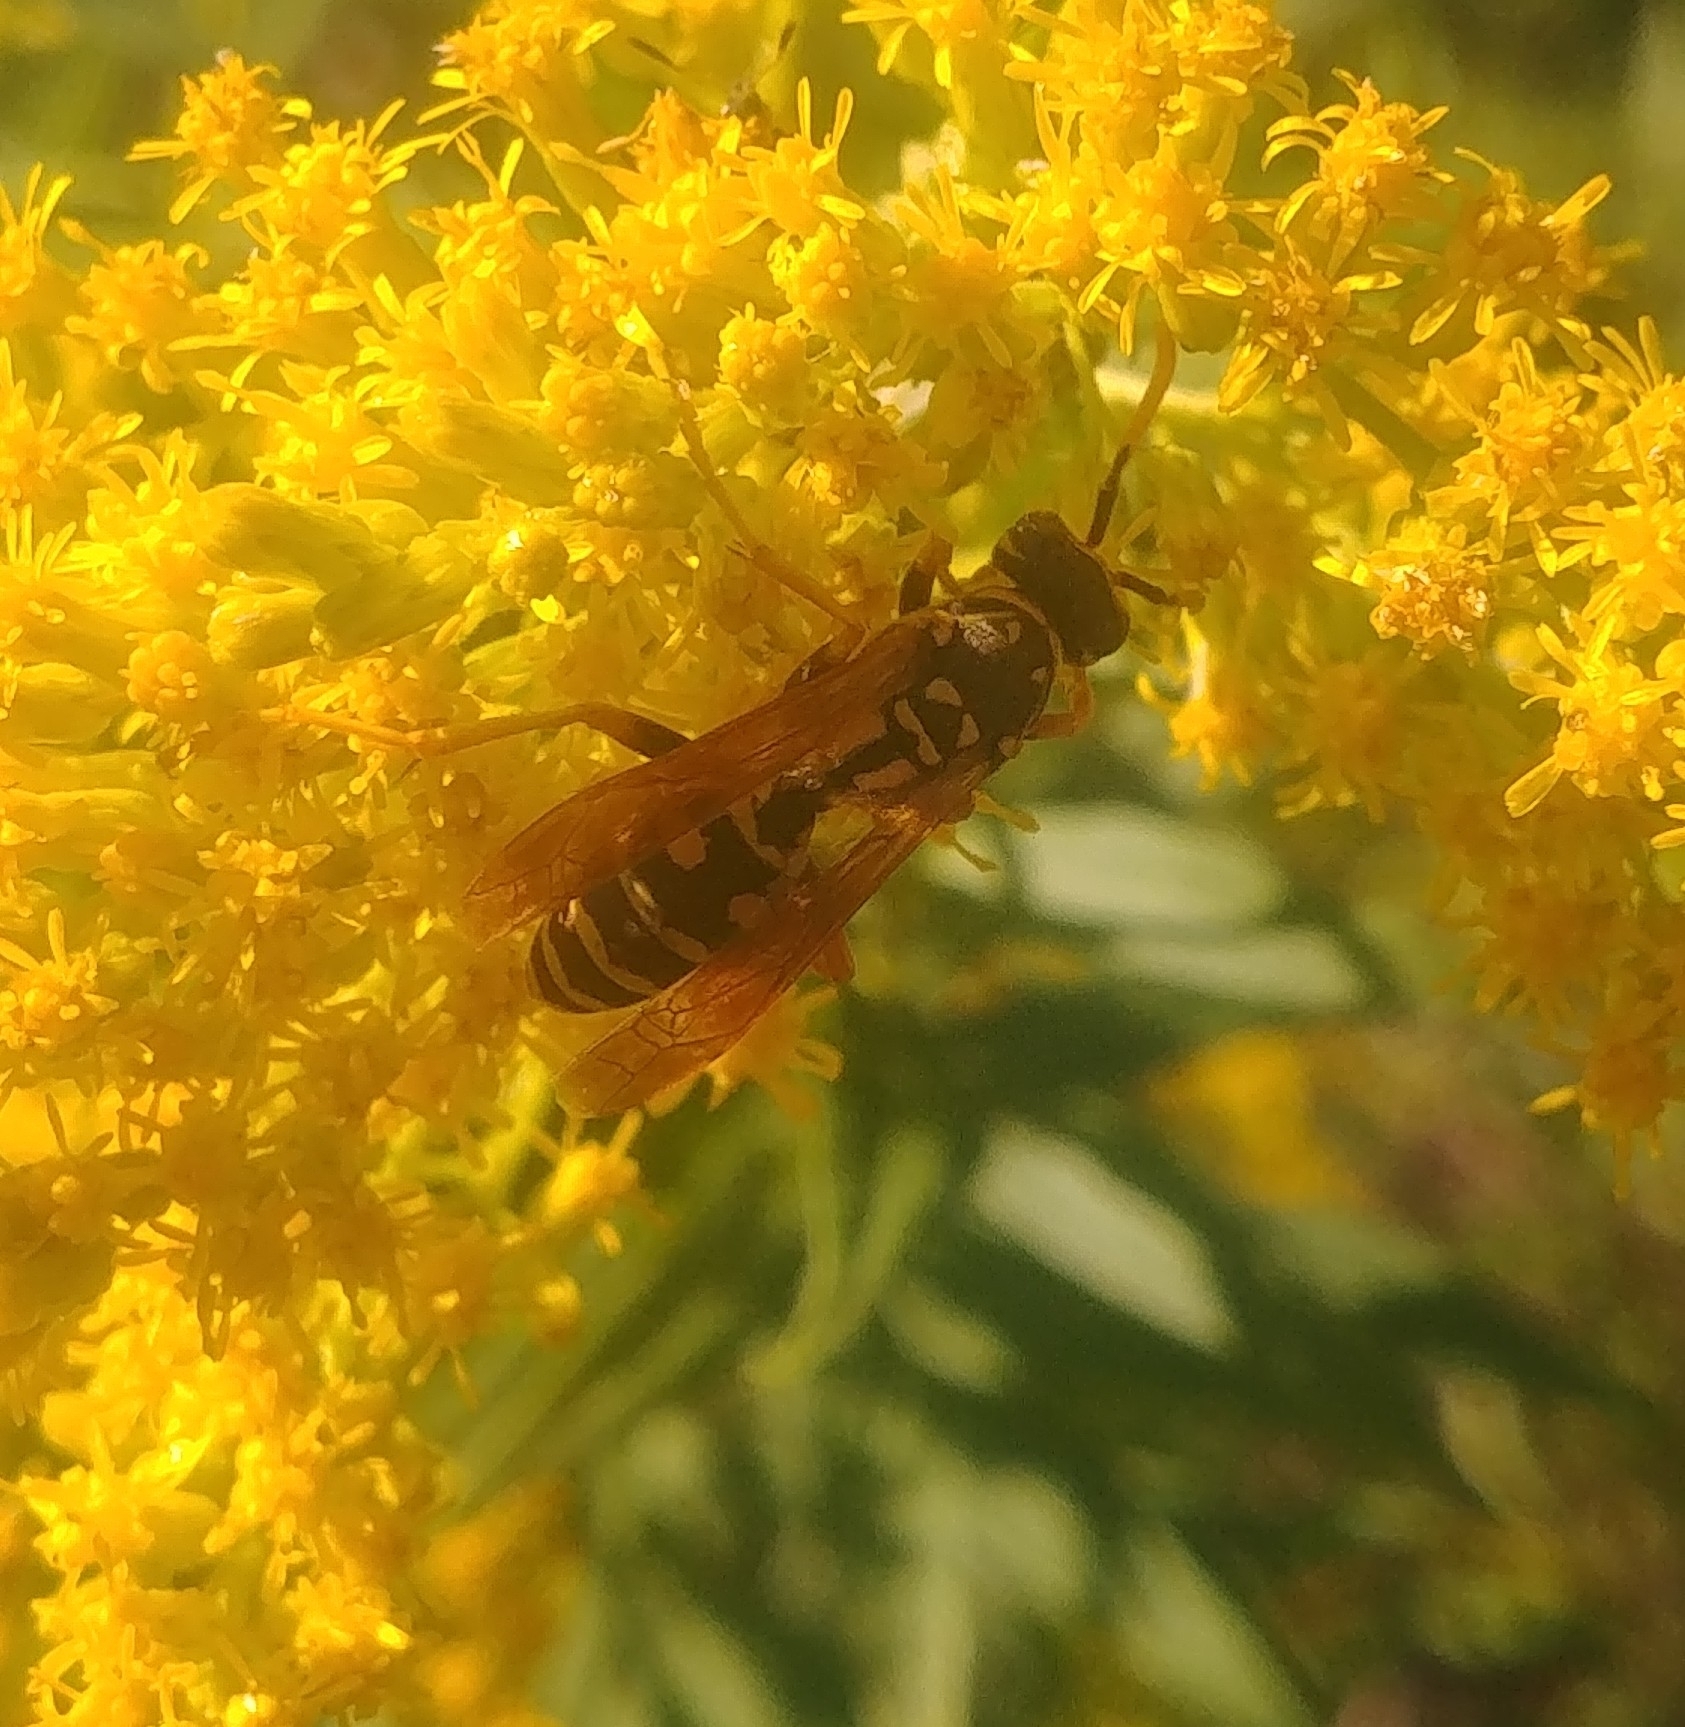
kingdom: Animalia
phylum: Arthropoda
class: Insecta
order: Hymenoptera
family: Eumenidae
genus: Polistes
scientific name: Polistes dominula
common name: Paper wasp
